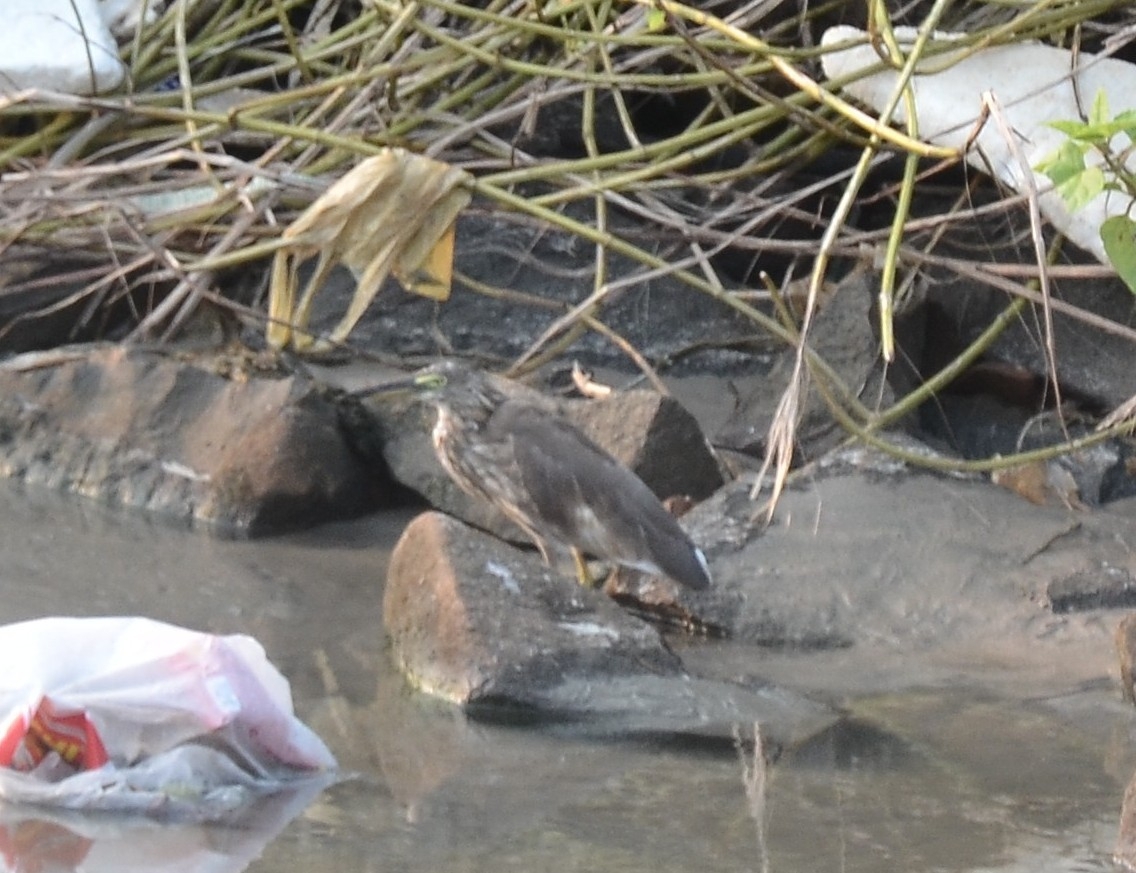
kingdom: Animalia
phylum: Chordata
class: Aves
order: Pelecaniformes
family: Ardeidae
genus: Ardeola
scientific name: Ardeola grayii
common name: Indian pond heron
